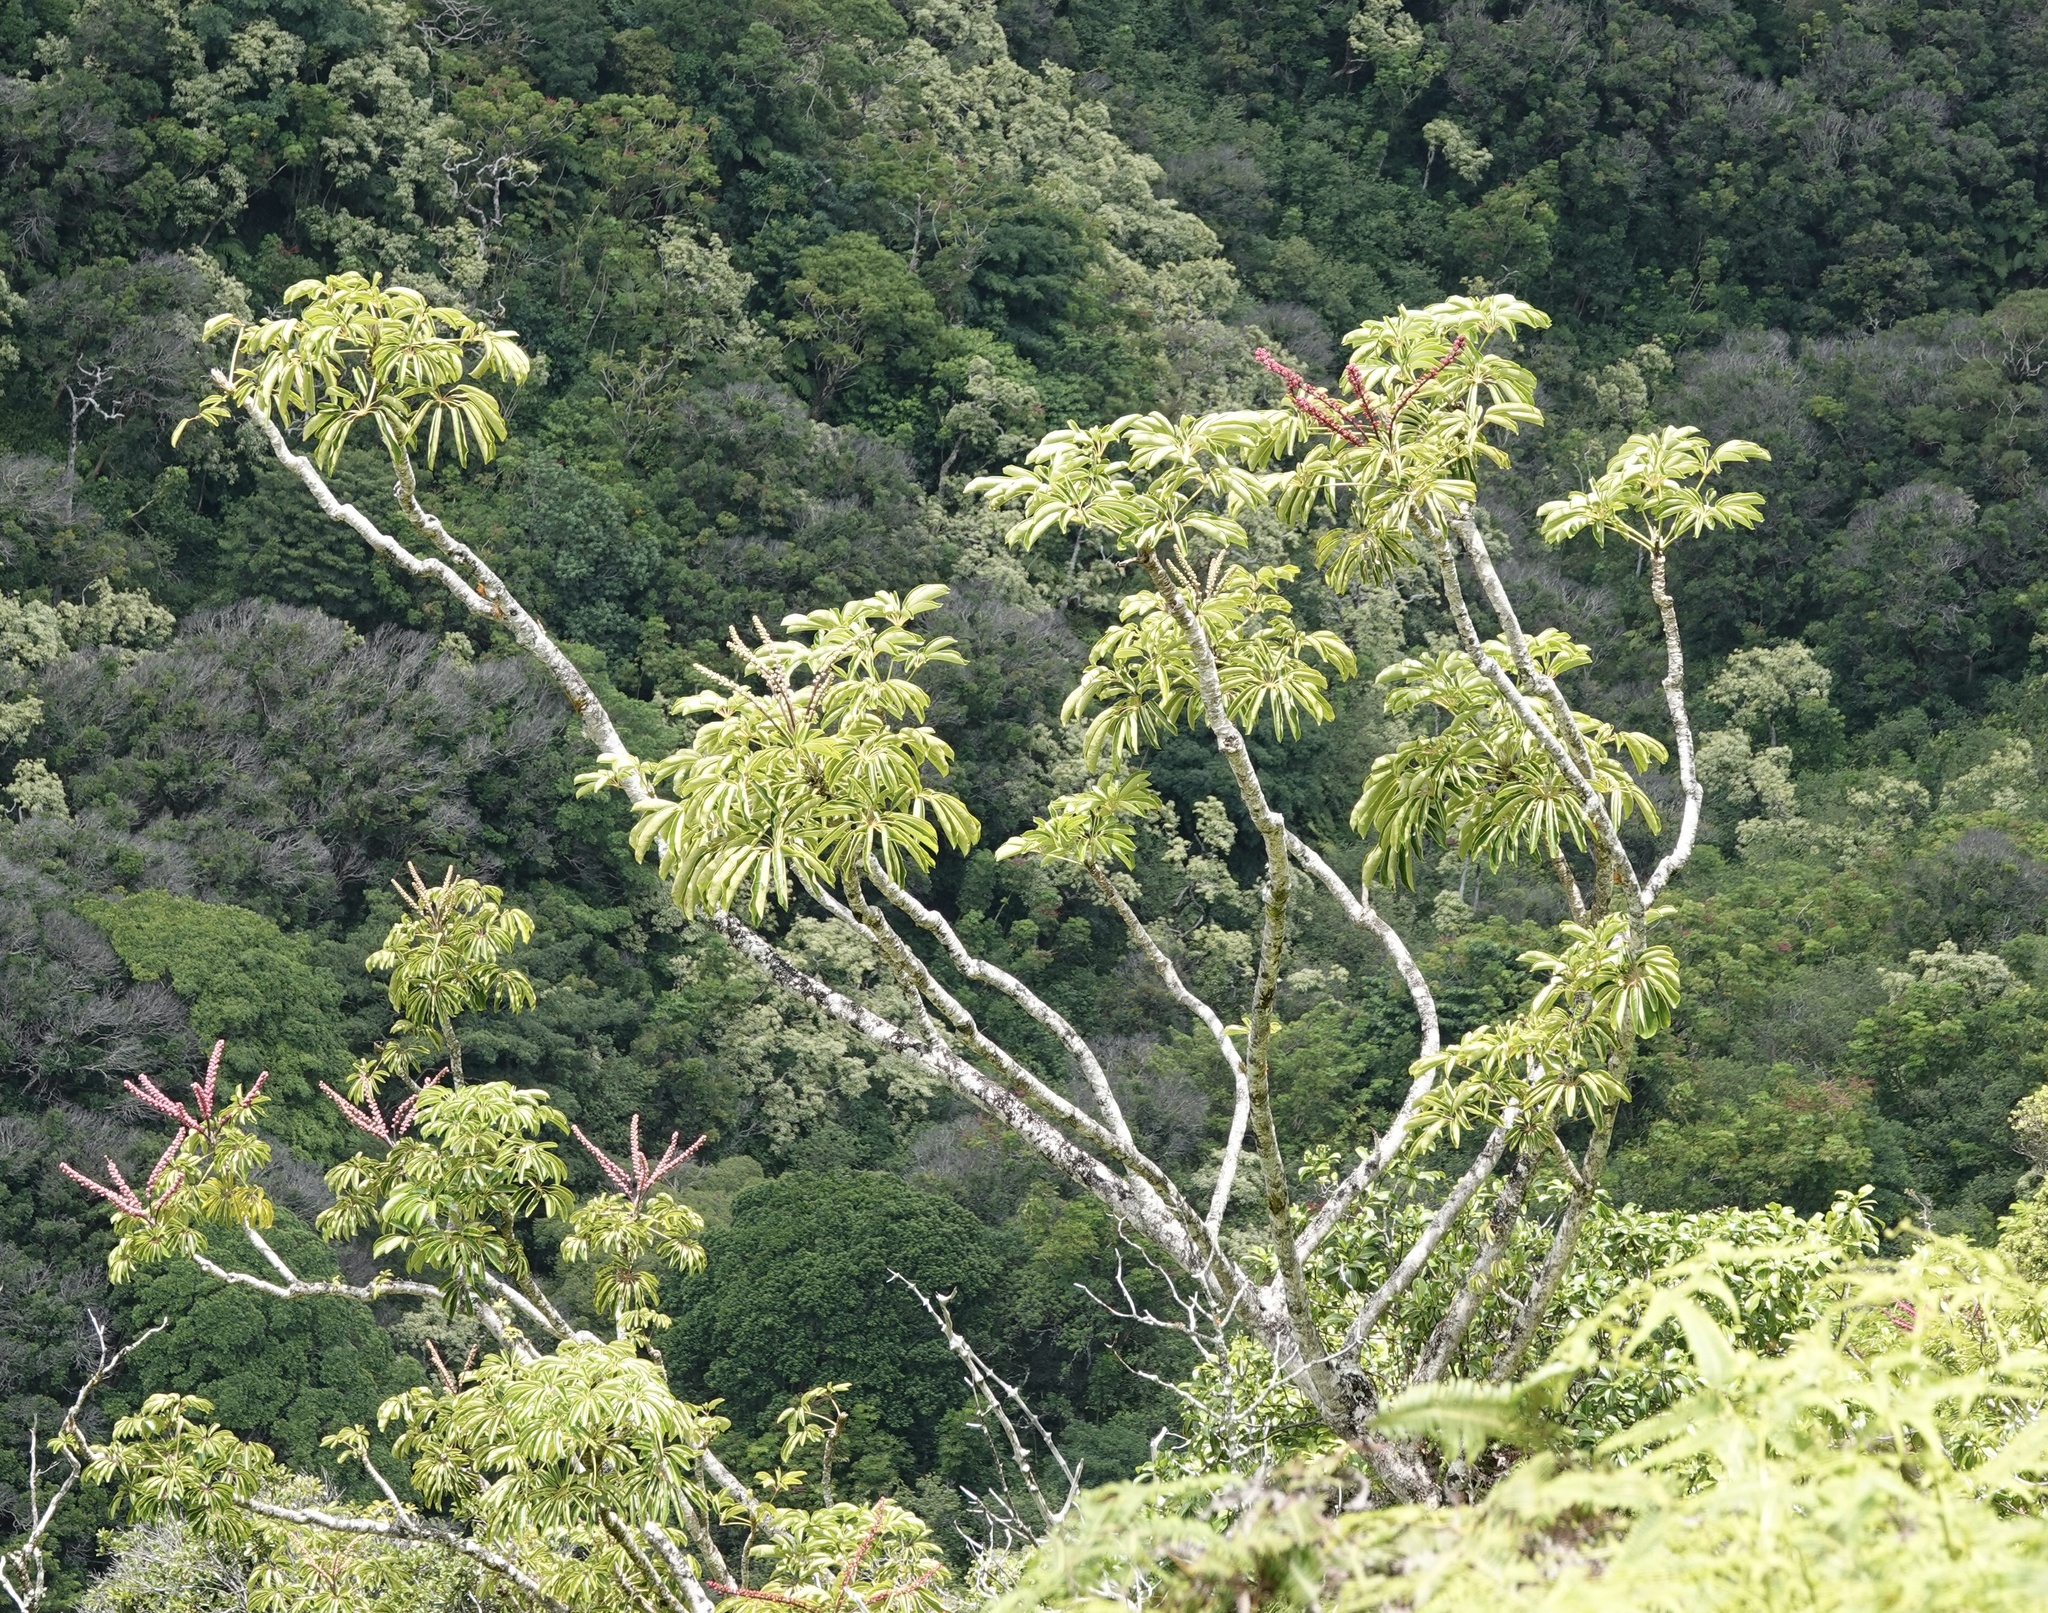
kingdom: Plantae
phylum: Tracheophyta
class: Magnoliopsida
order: Apiales
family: Araliaceae
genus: Heptapleurum
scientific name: Heptapleurum actinophyllum
